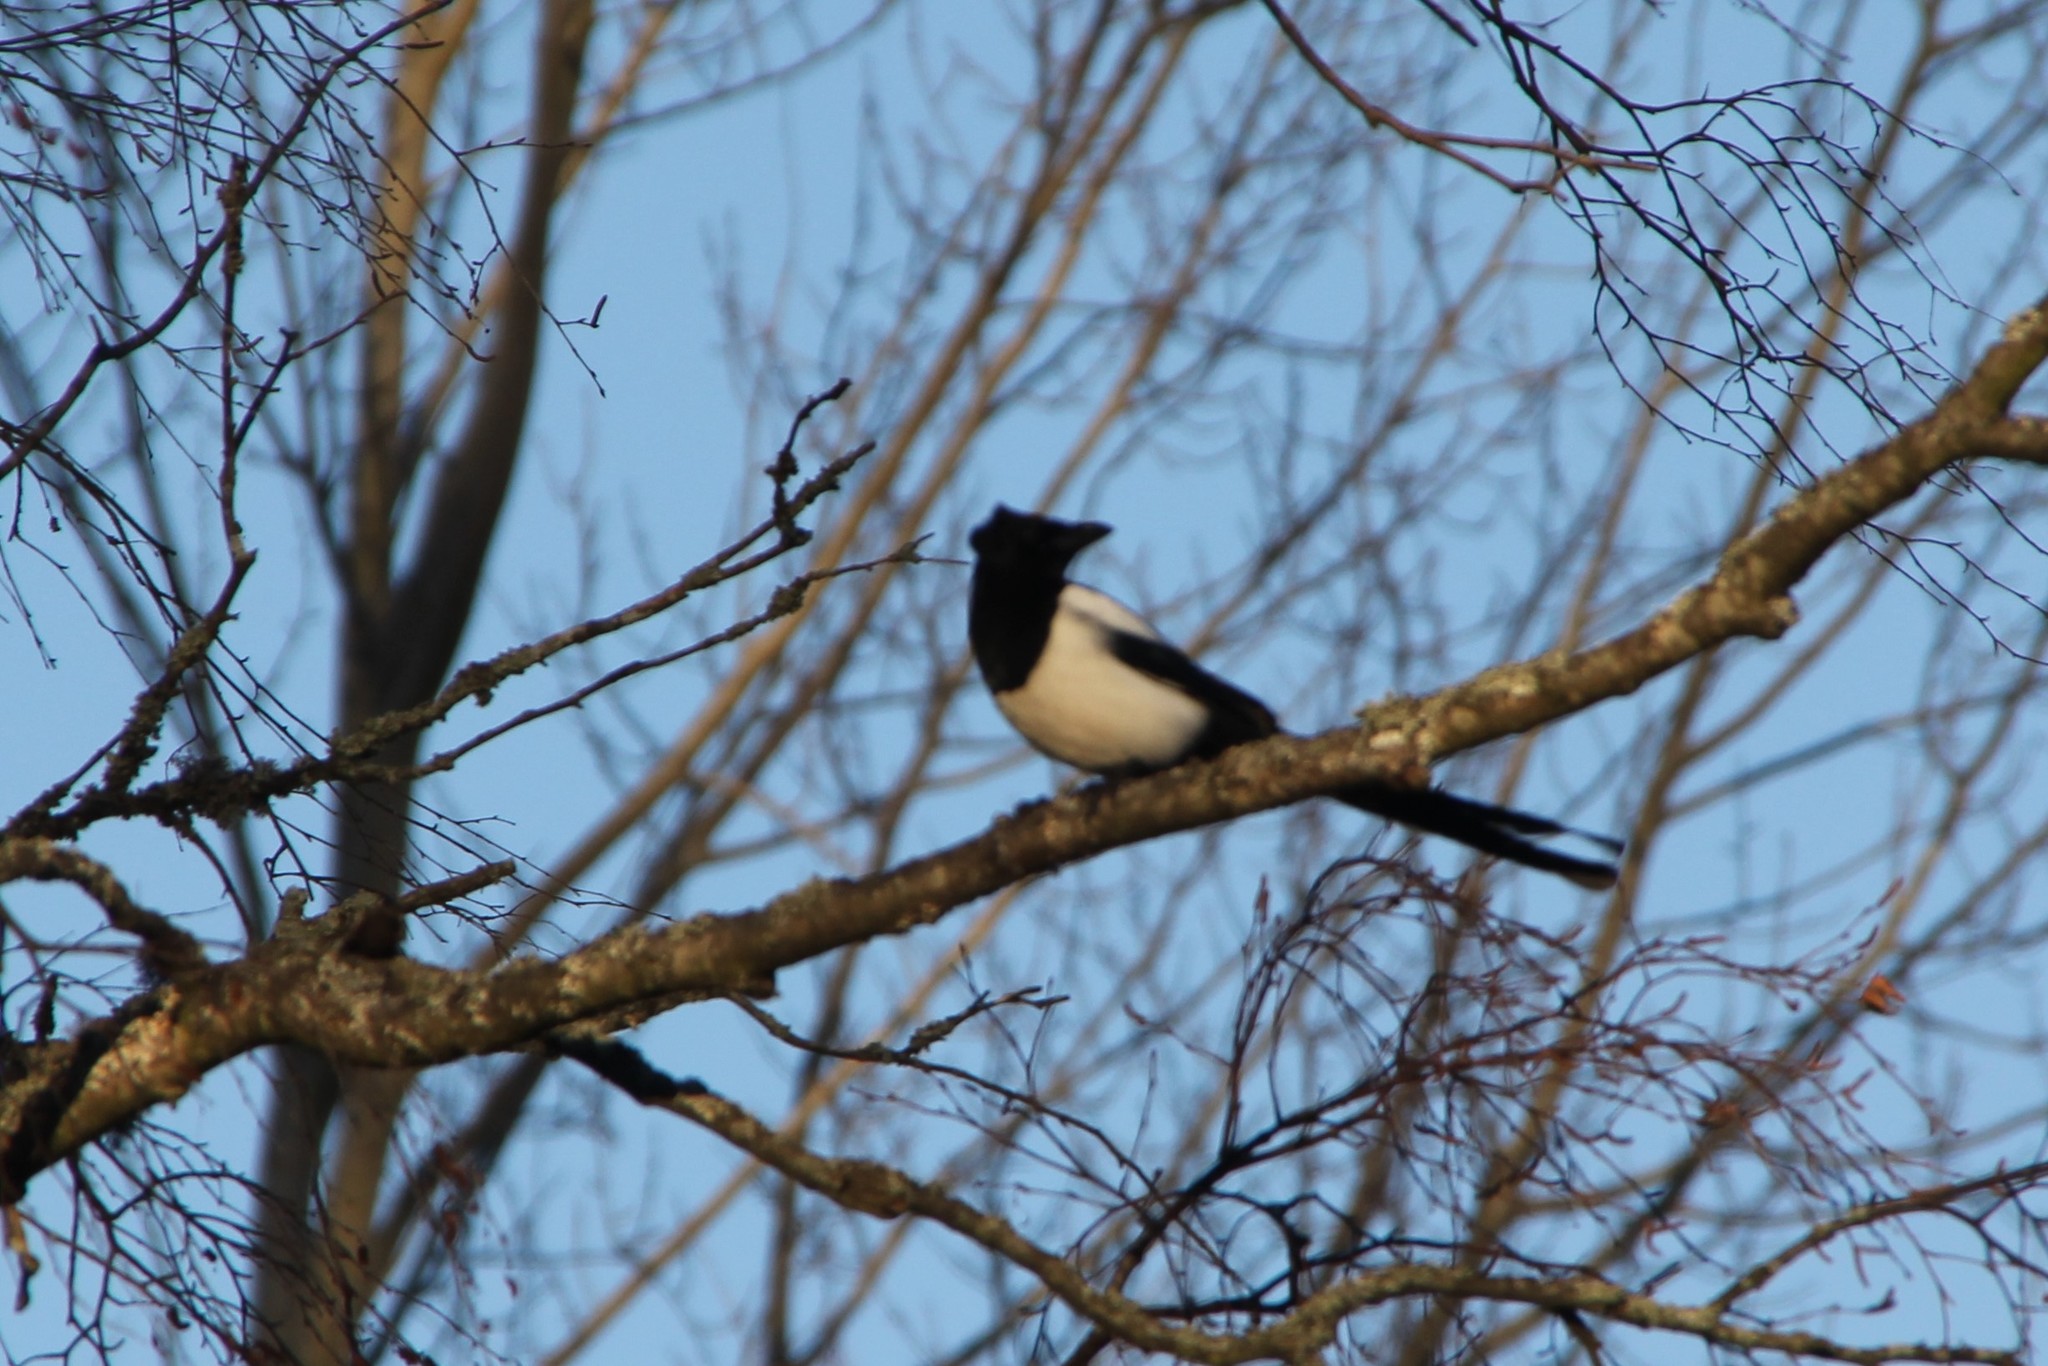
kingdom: Animalia
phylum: Chordata
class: Aves
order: Passeriformes
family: Corvidae
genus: Pica
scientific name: Pica pica
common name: Eurasian magpie
